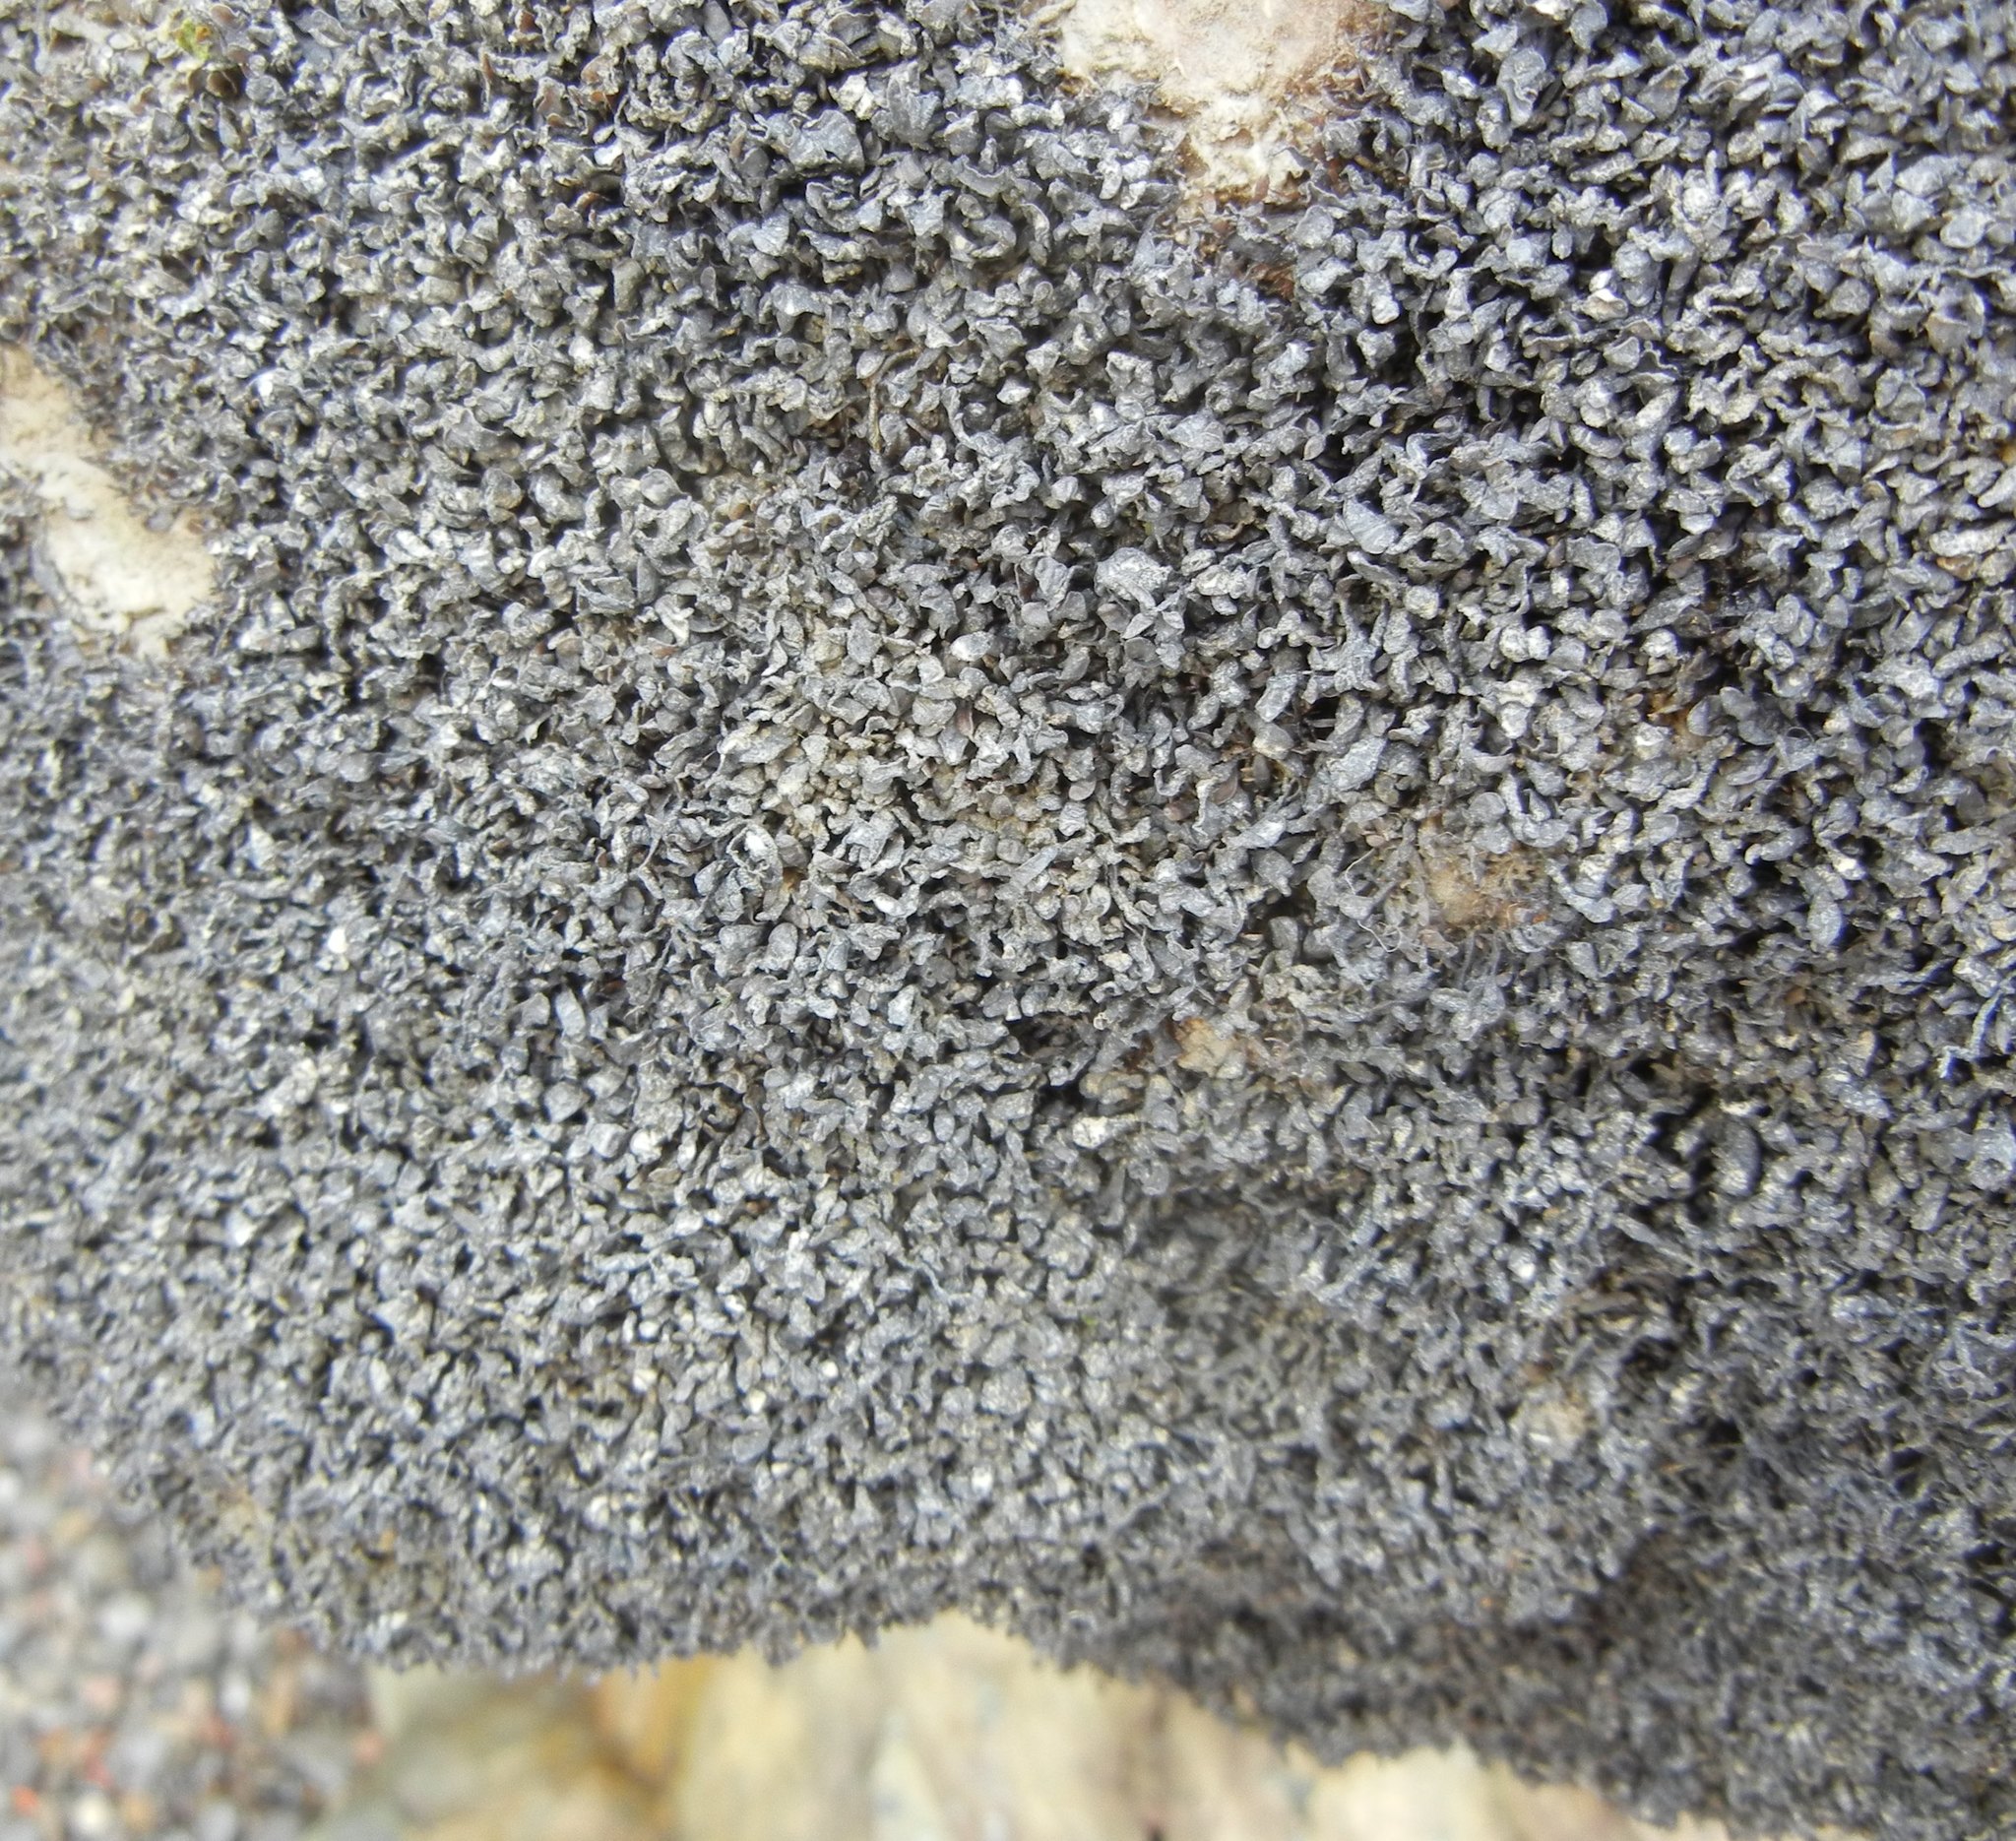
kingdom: Plantae
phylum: Rhodophyta
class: Florideophyceae
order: Gigartinales
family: Caulacanthaceae
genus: Catenella
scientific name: Catenella caespitosa
